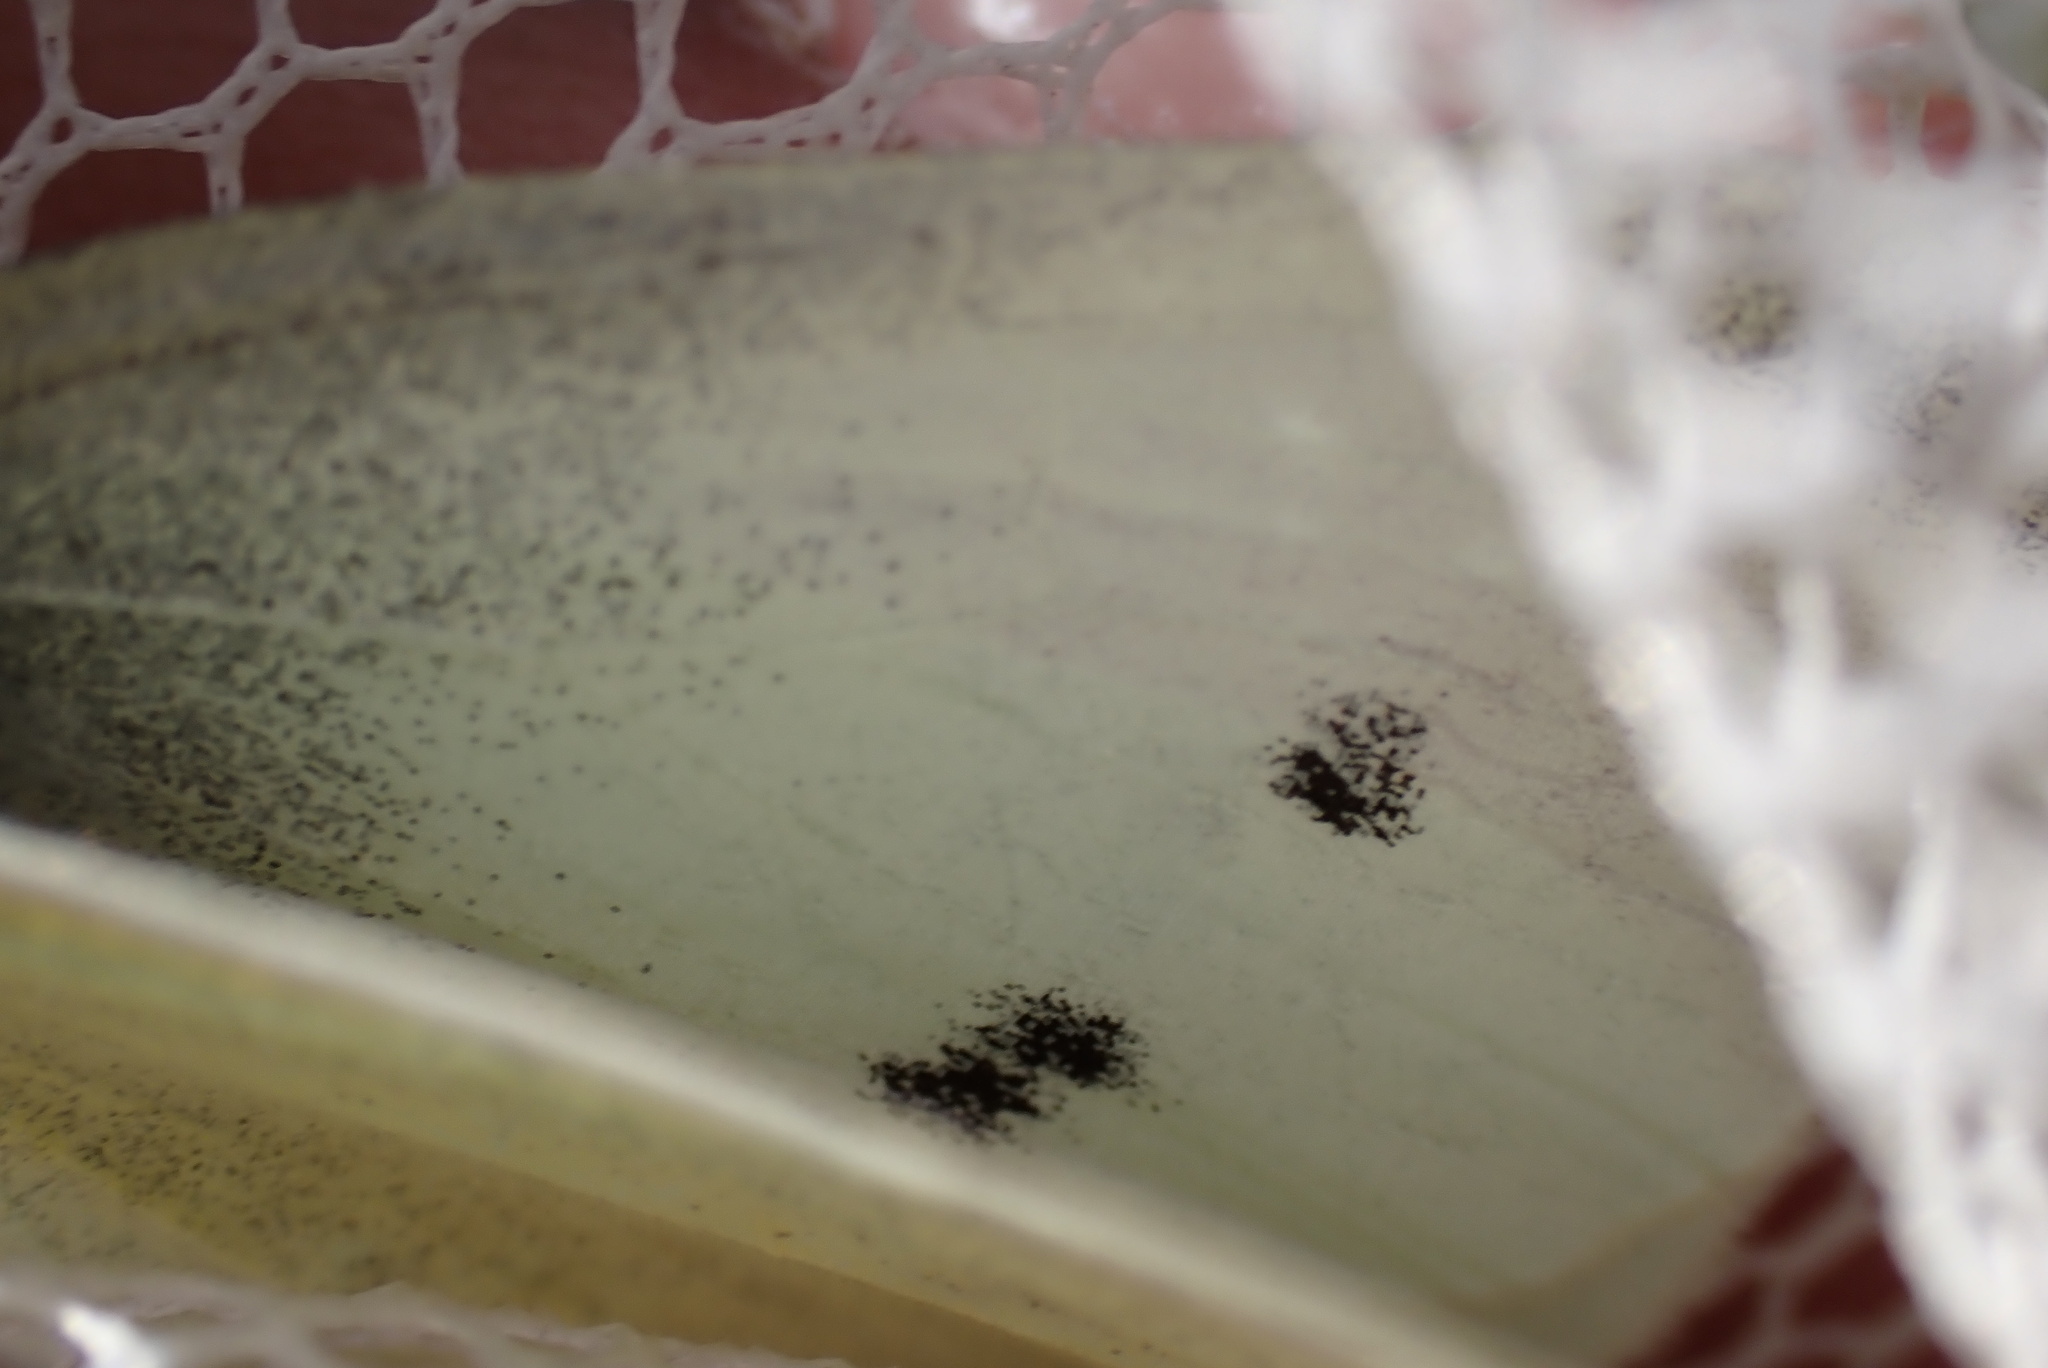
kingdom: Animalia
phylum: Arthropoda
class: Insecta
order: Lepidoptera
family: Pieridae
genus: Pieris
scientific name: Pieris rapae
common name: Small white
